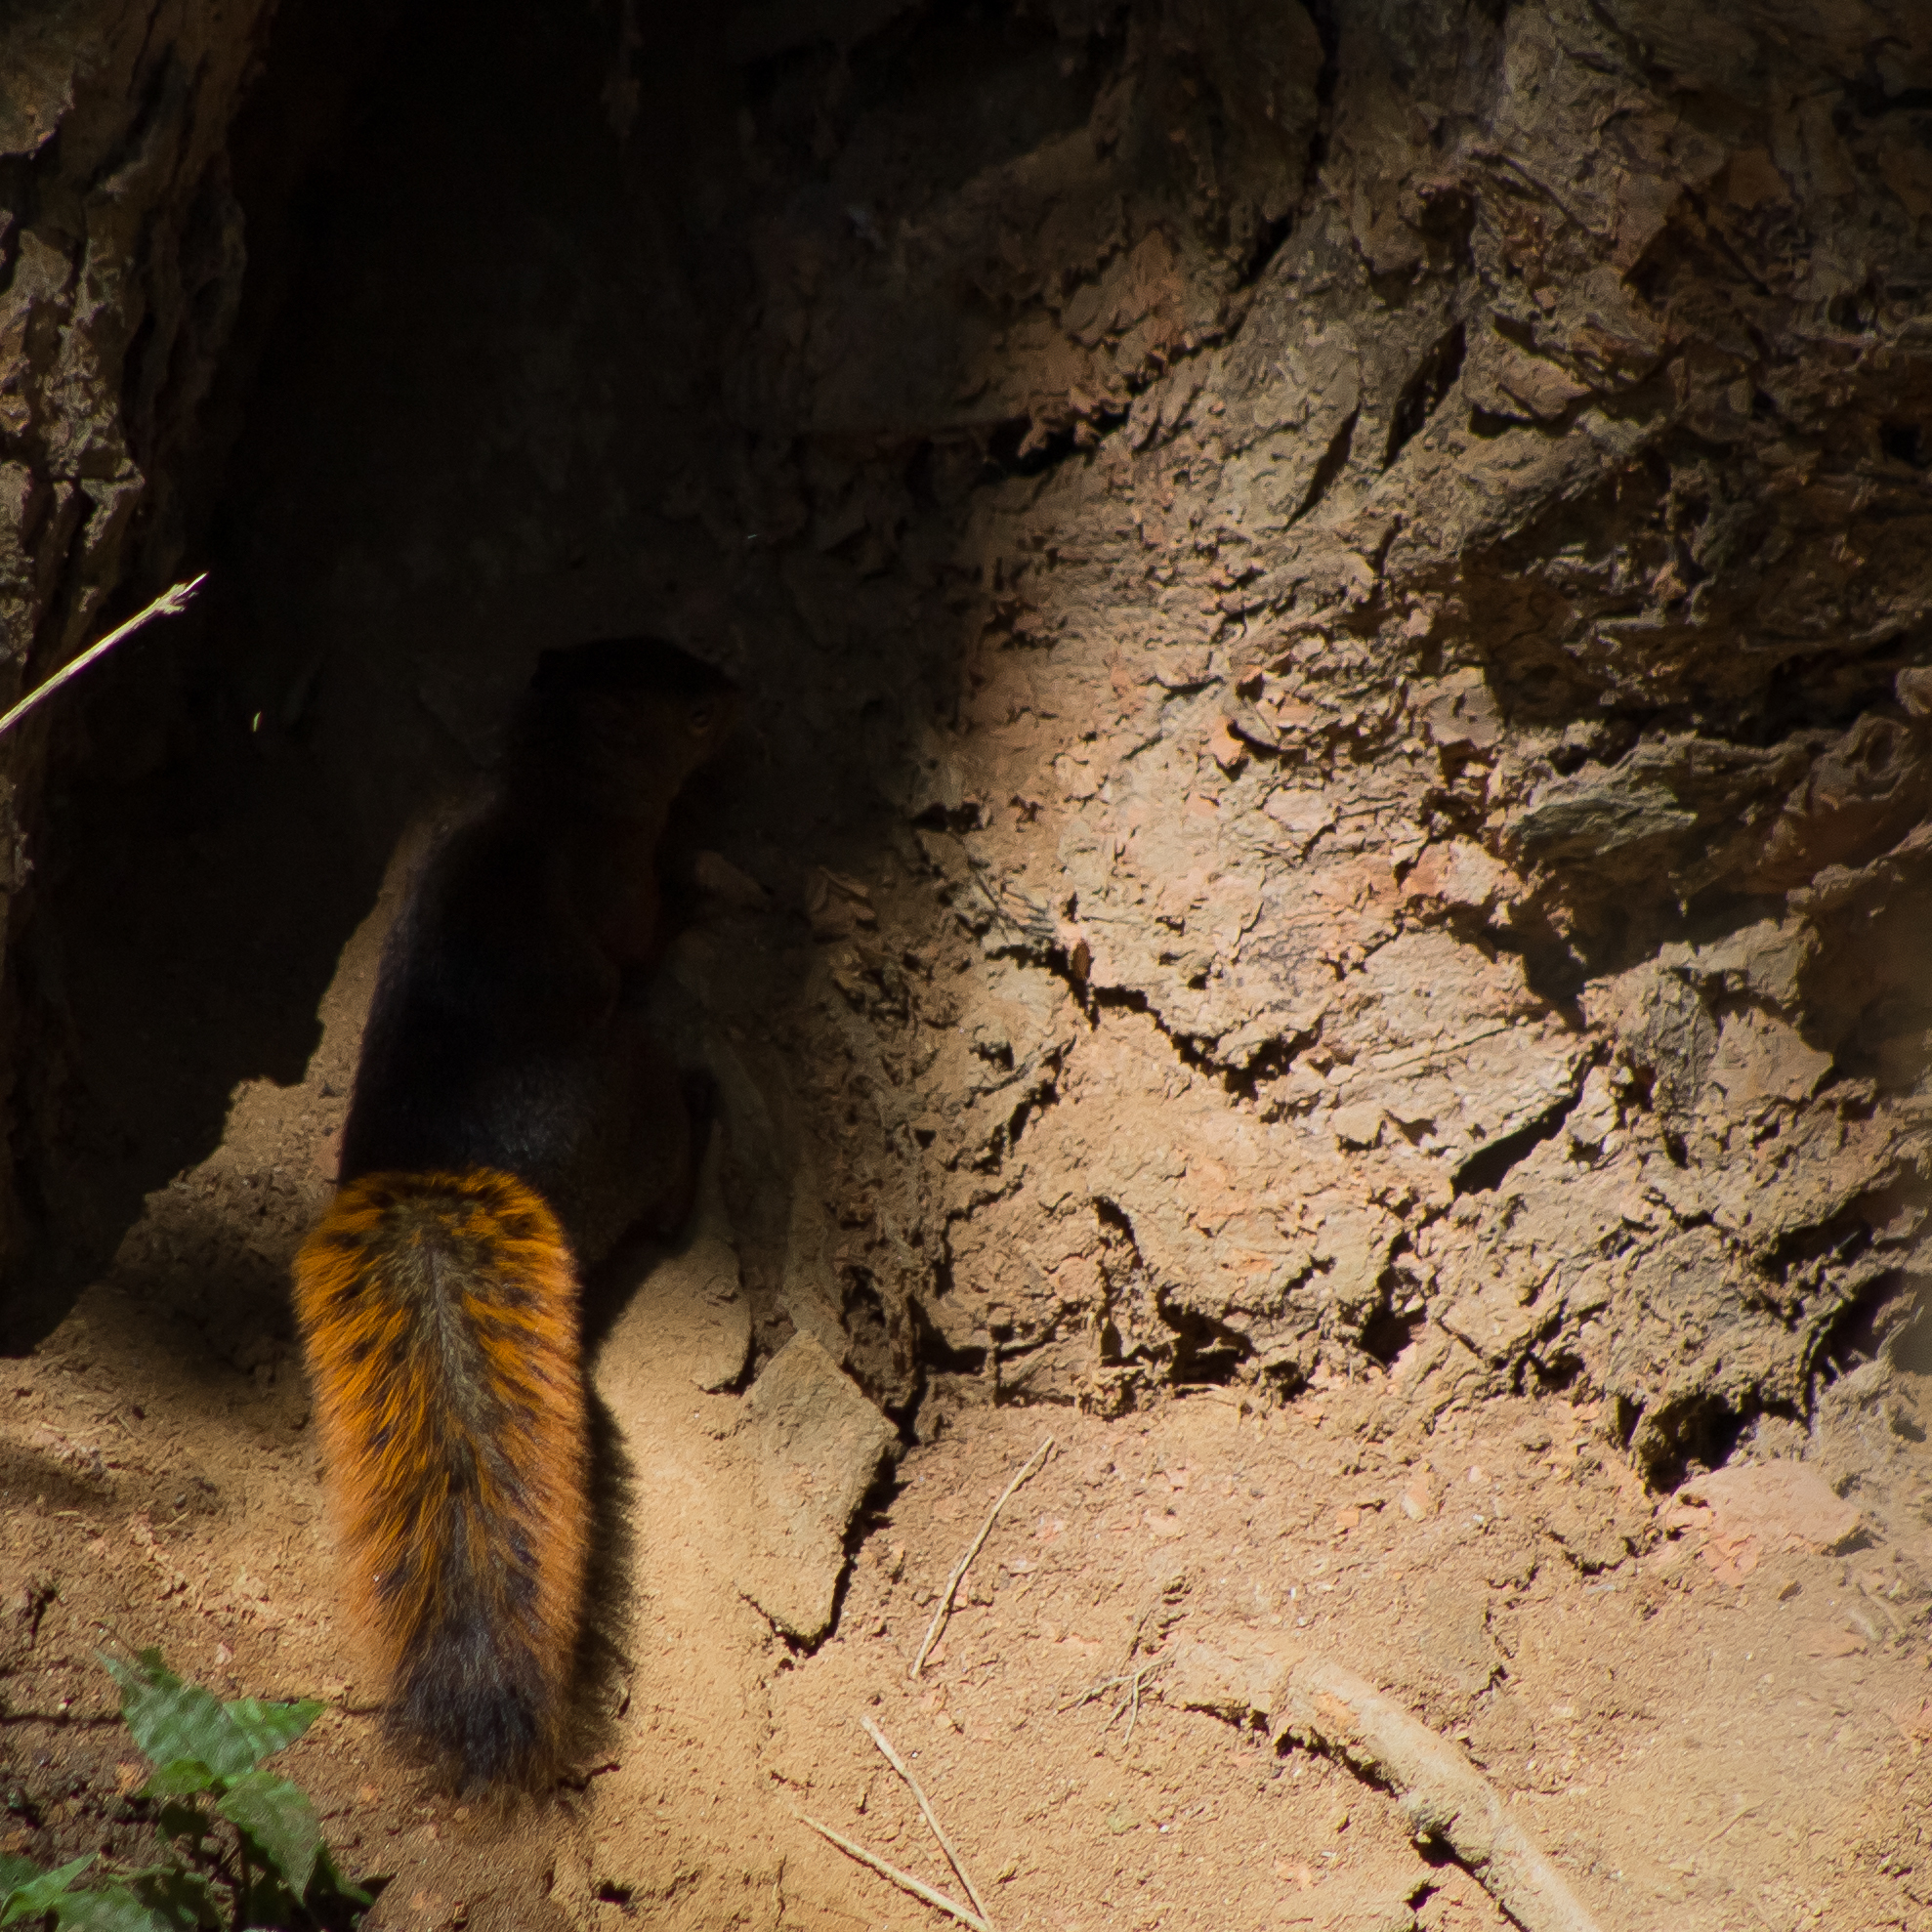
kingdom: Animalia
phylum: Chordata
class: Mammalia
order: Rodentia
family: Sciuridae
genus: Sciurus
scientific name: Sciurus granatensis
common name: Red-tailed squirrel
